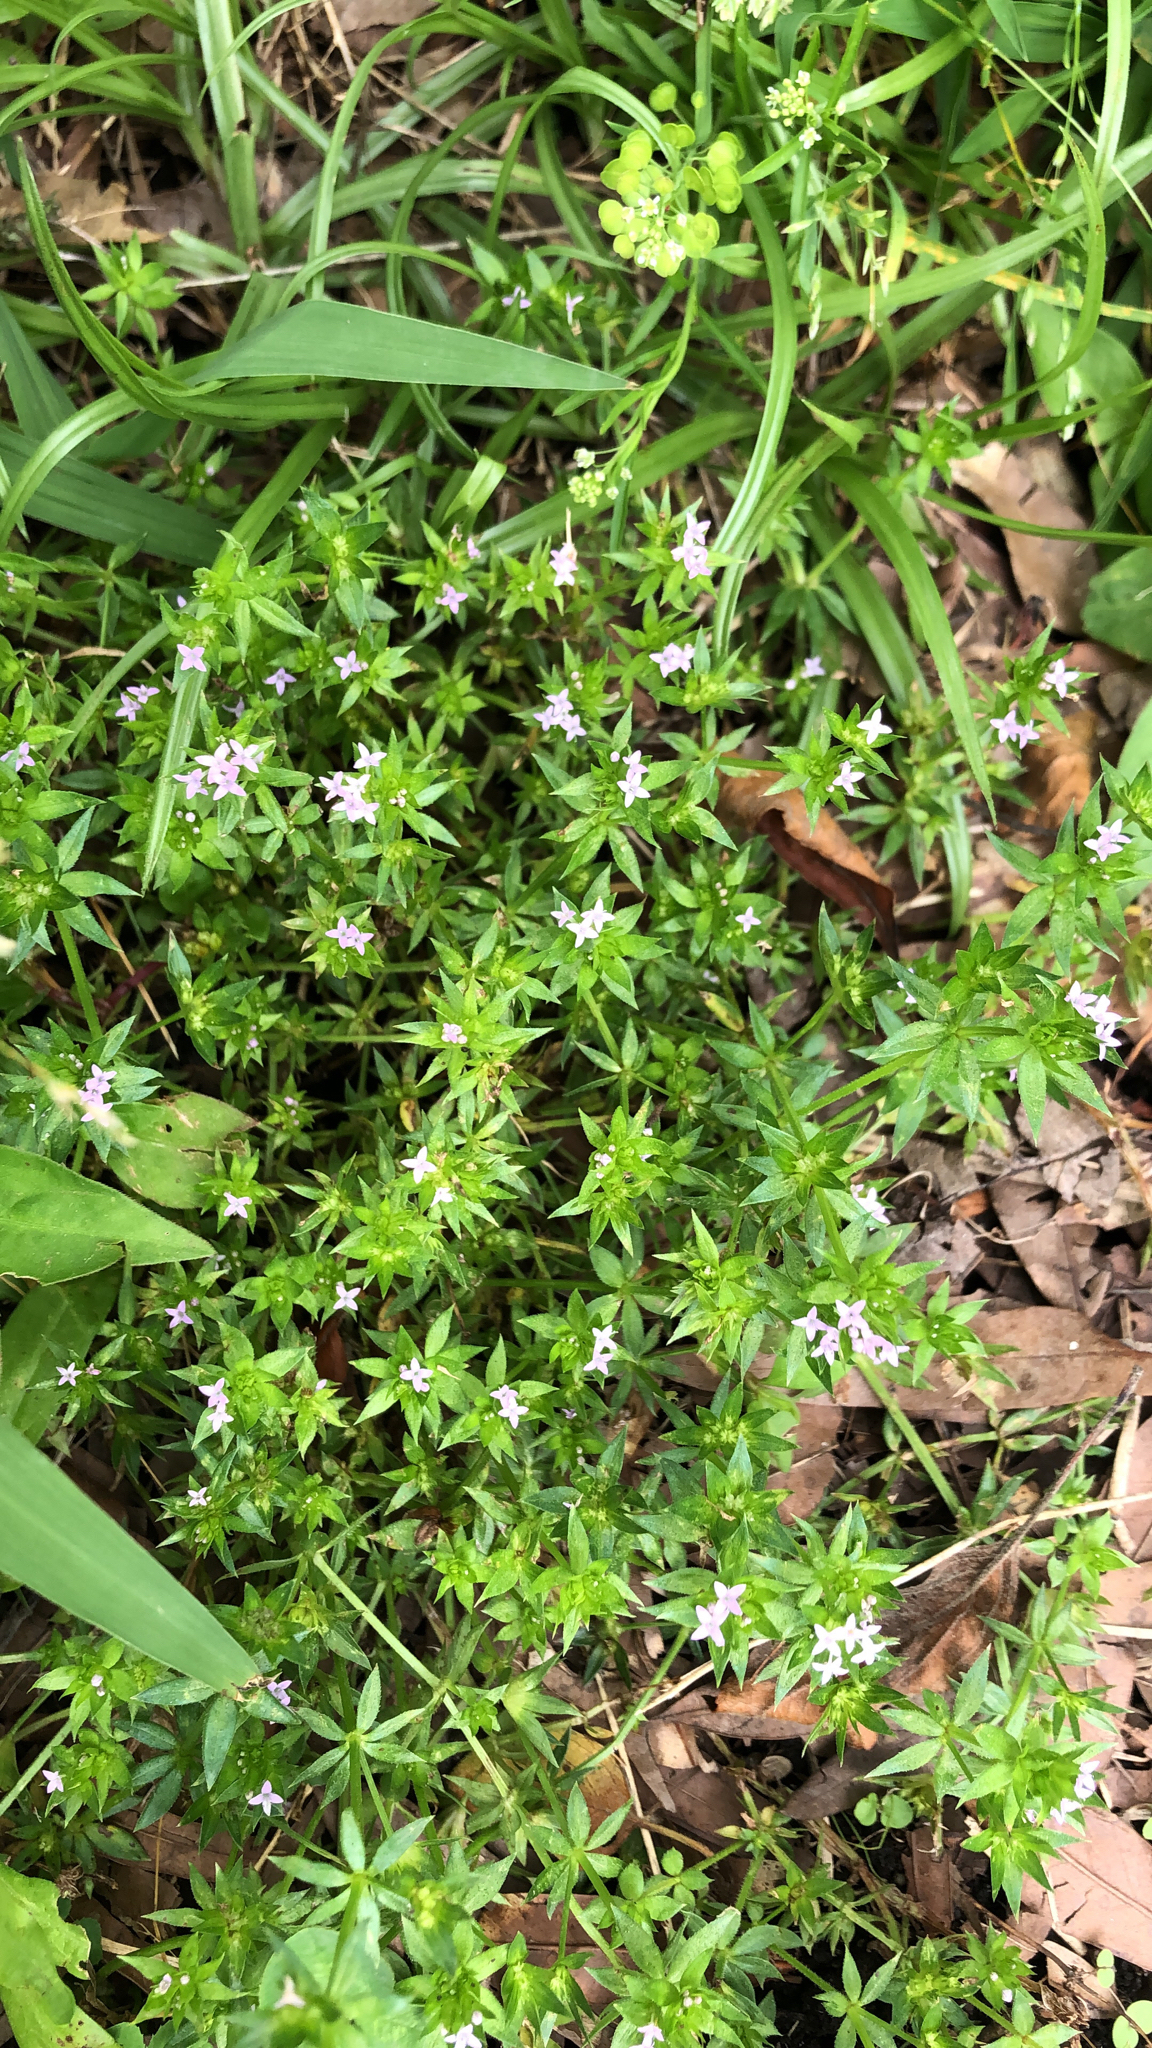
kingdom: Plantae
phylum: Tracheophyta
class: Magnoliopsida
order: Gentianales
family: Rubiaceae
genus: Sherardia
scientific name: Sherardia arvensis
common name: Field madder
